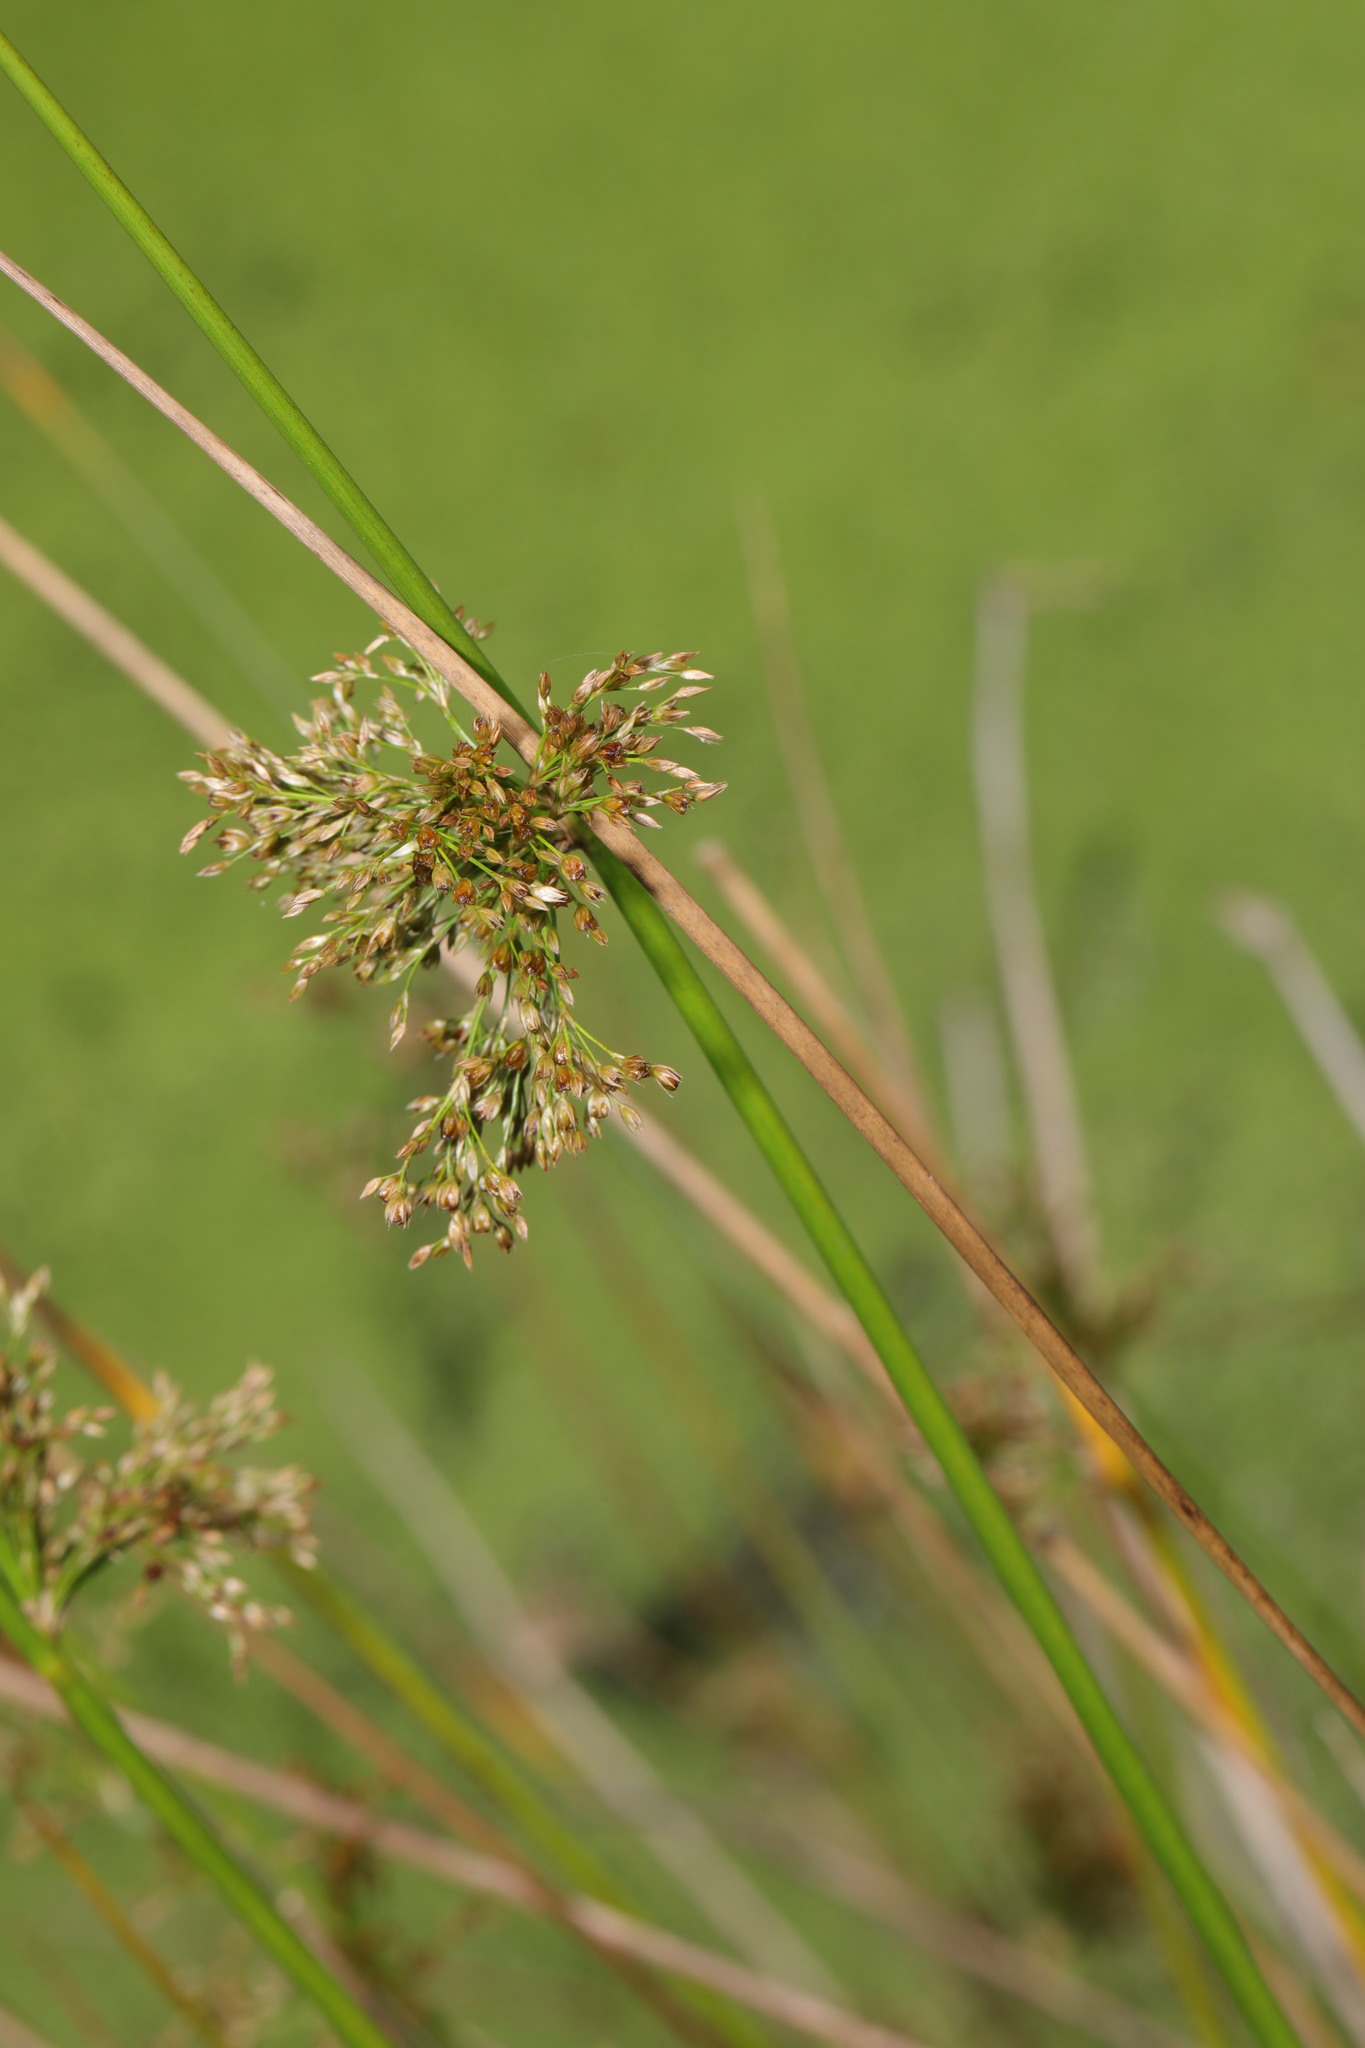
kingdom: Plantae
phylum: Tracheophyta
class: Liliopsida
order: Poales
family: Juncaceae
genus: Juncus
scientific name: Juncus effusus
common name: Soft rush
